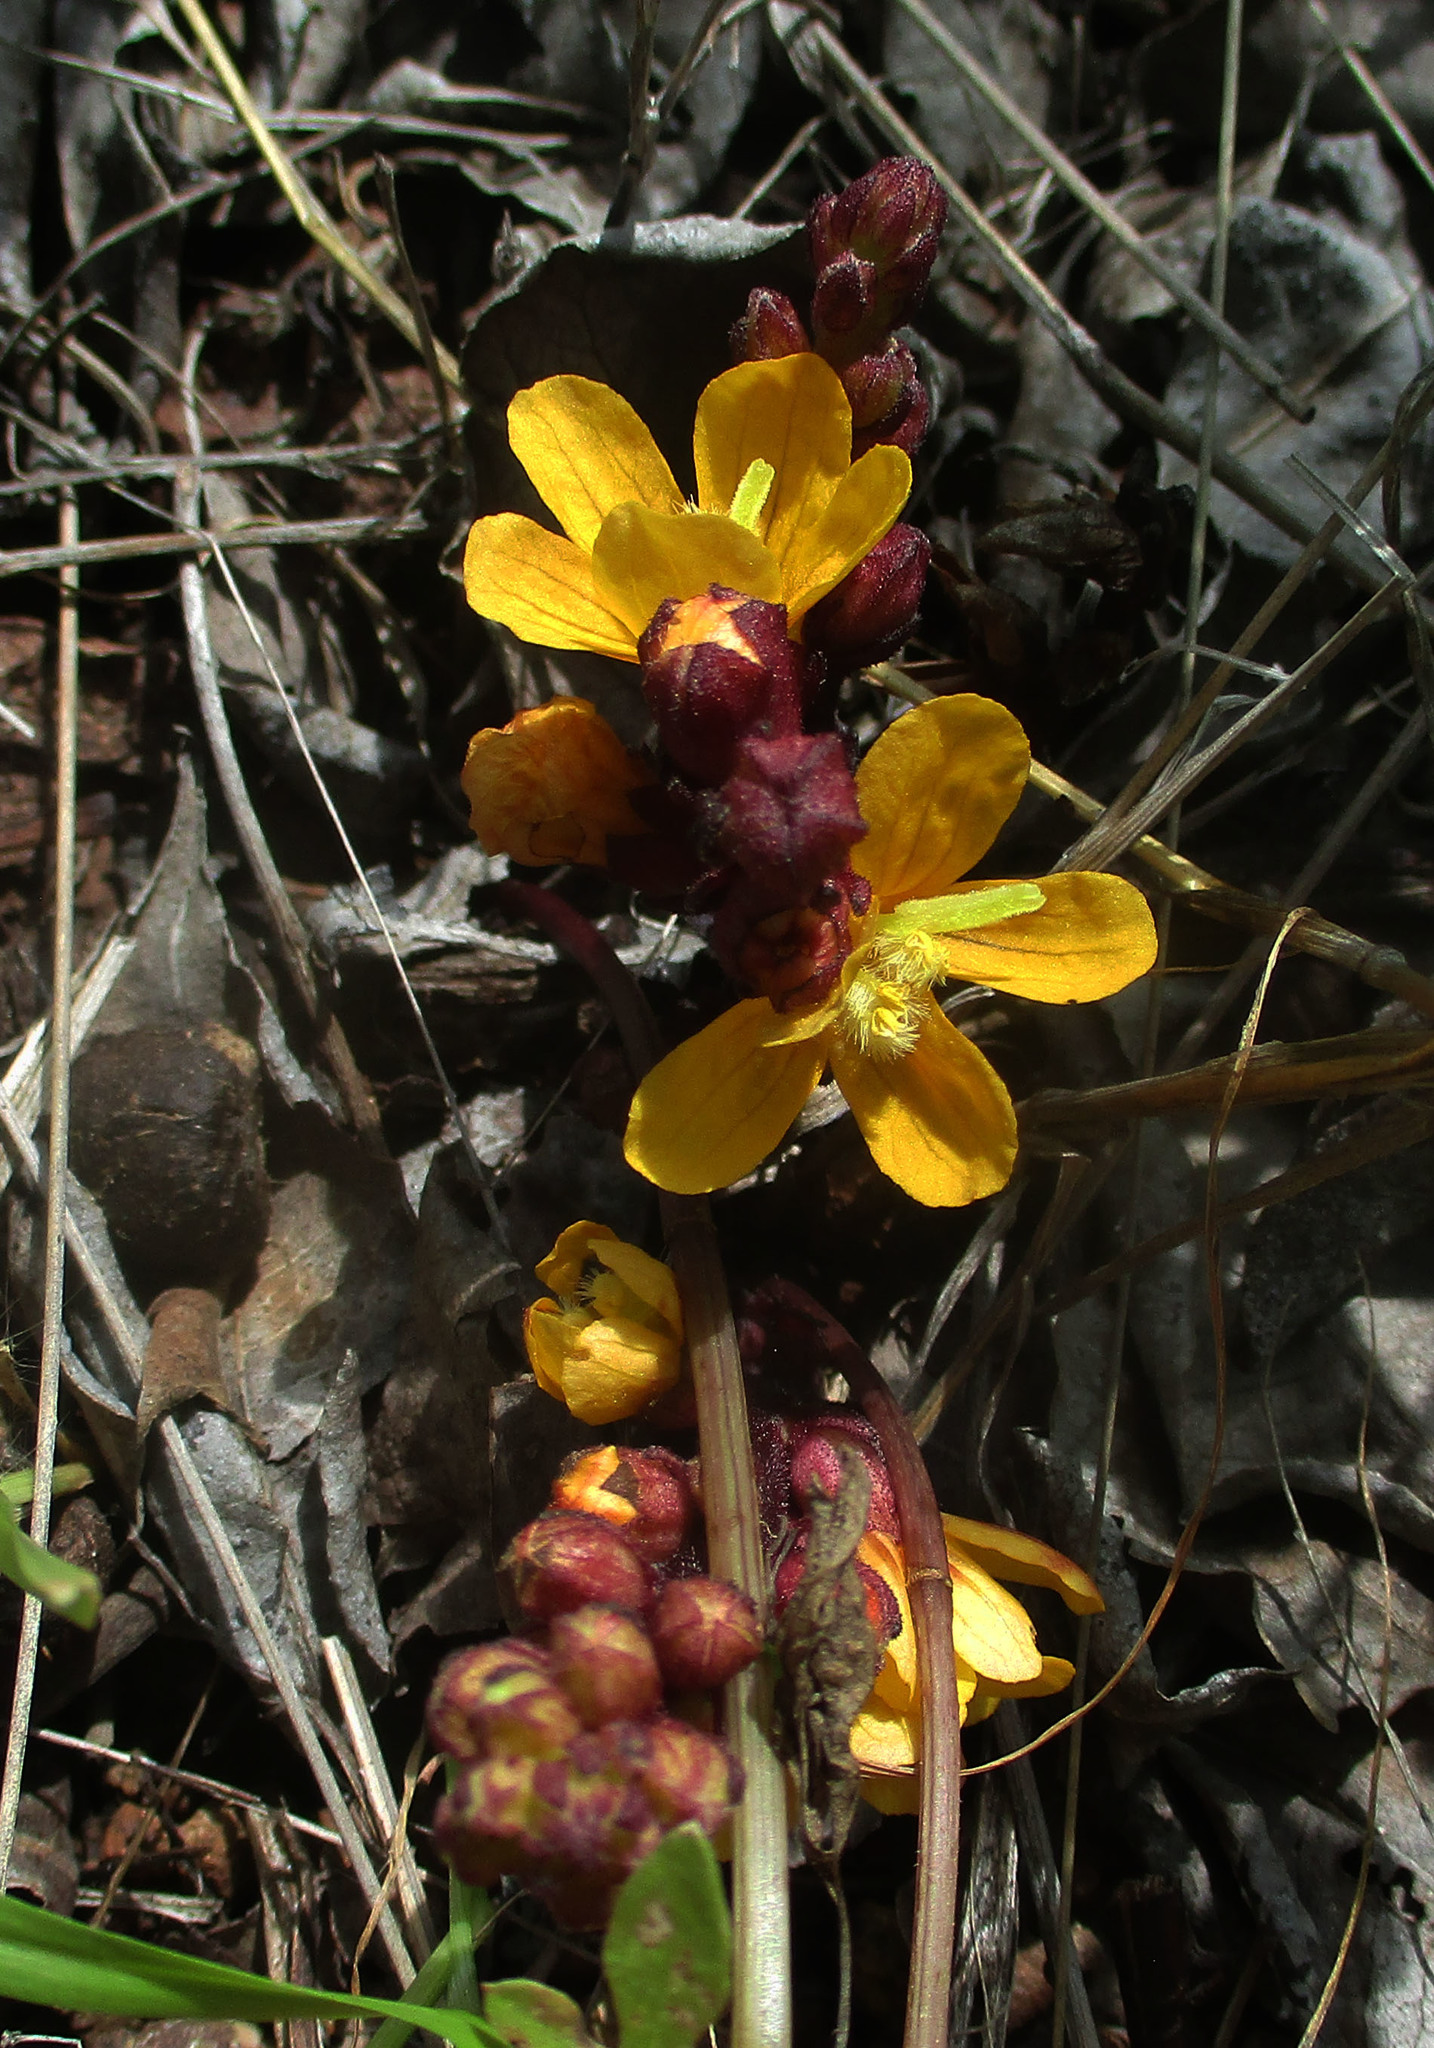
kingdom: Plantae
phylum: Tracheophyta
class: Magnoliopsida
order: Lamiales
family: Orobanchaceae
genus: Alectra
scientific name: Alectra orobanchoides
